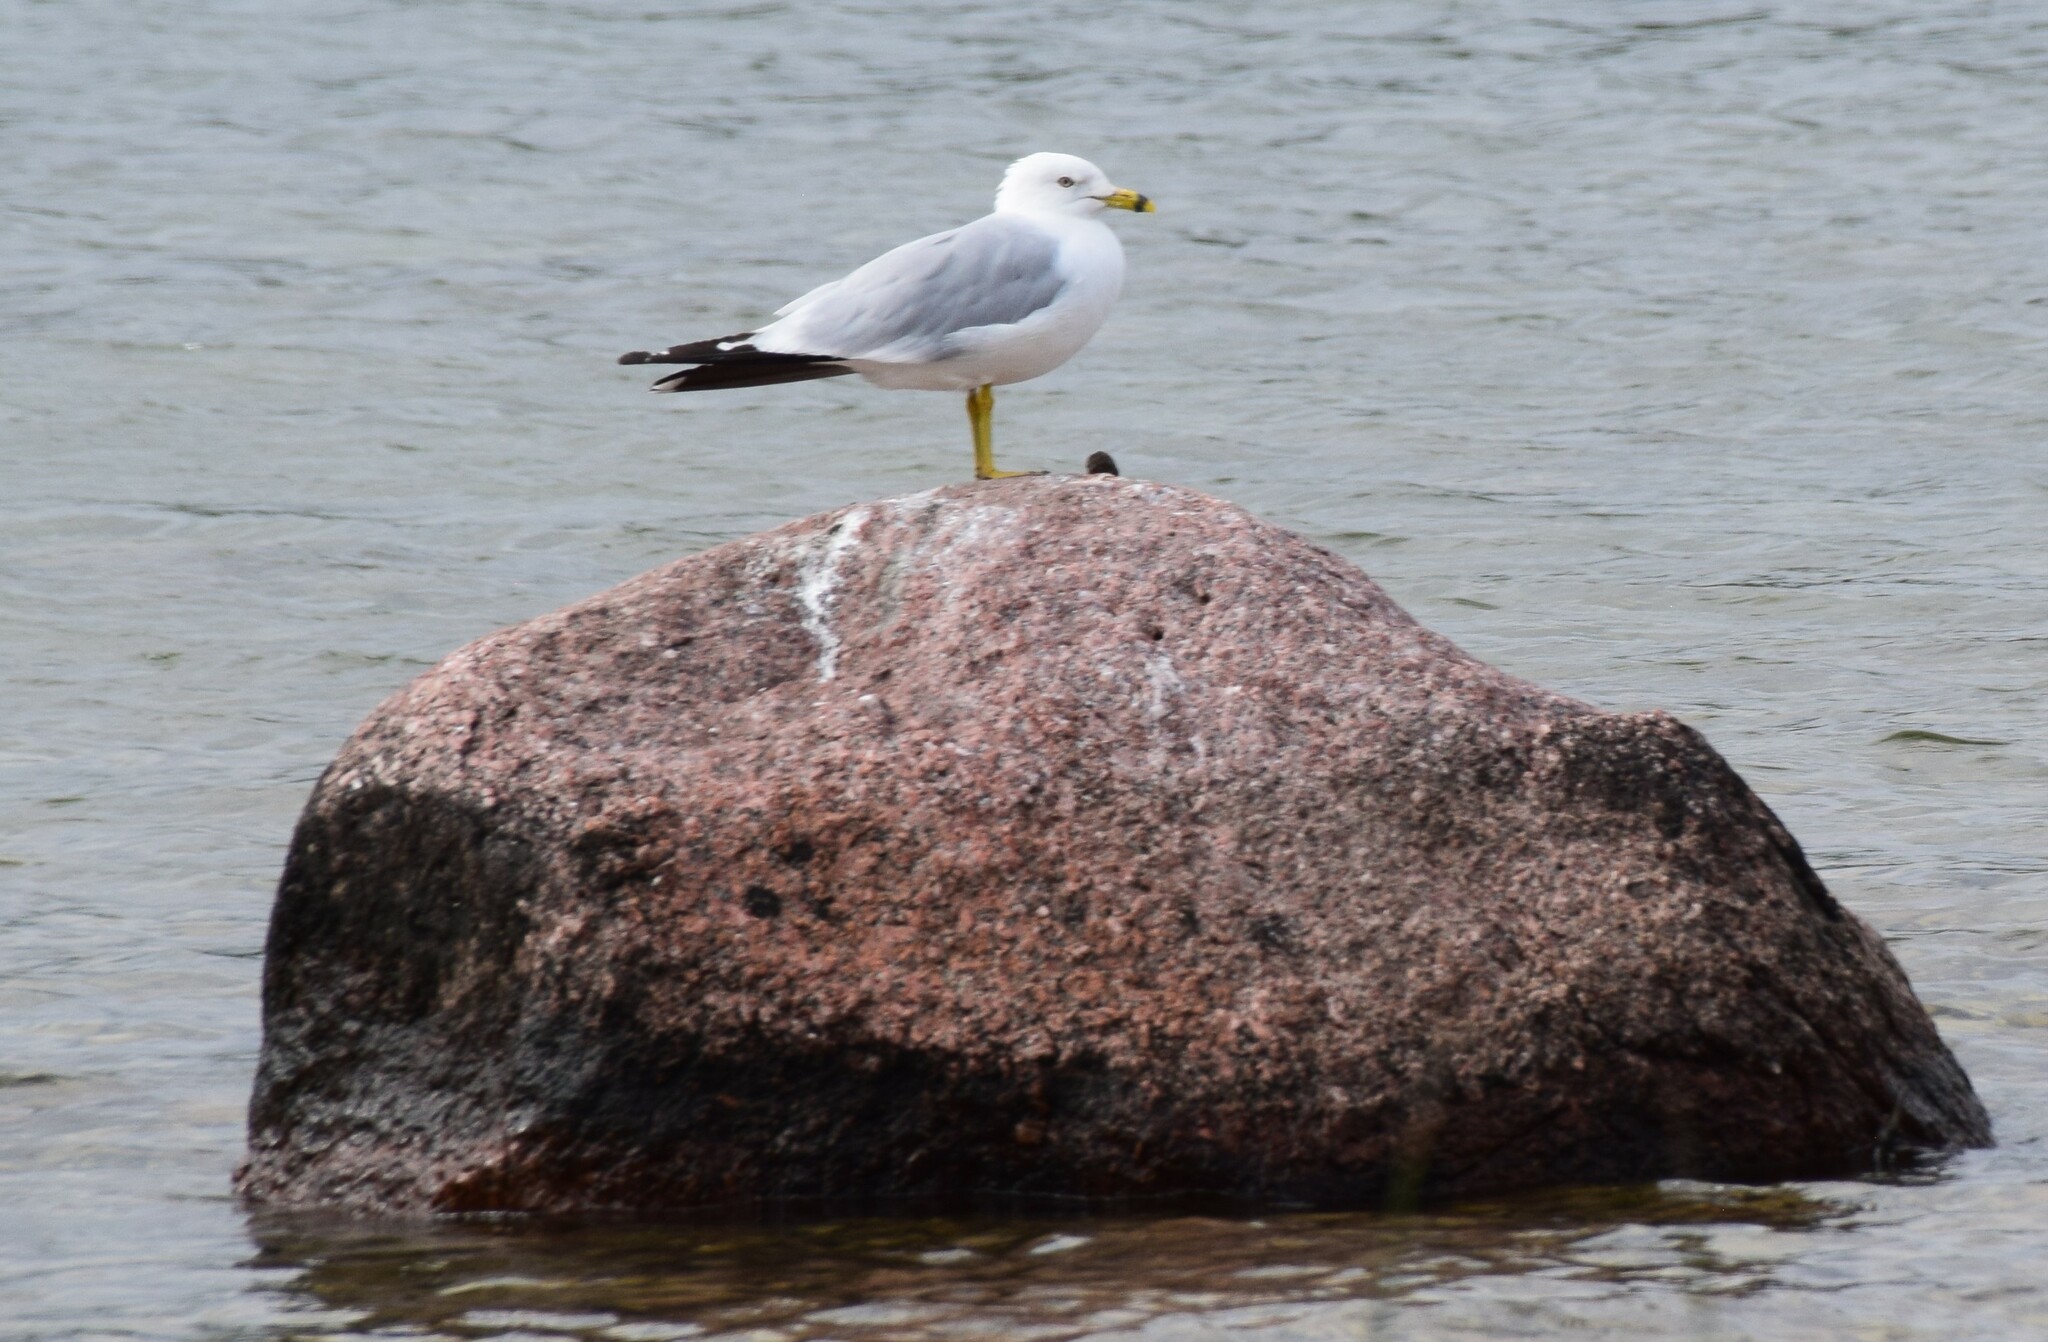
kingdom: Animalia
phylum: Chordata
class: Aves
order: Charadriiformes
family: Laridae
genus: Larus
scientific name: Larus delawarensis
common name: Ring-billed gull
